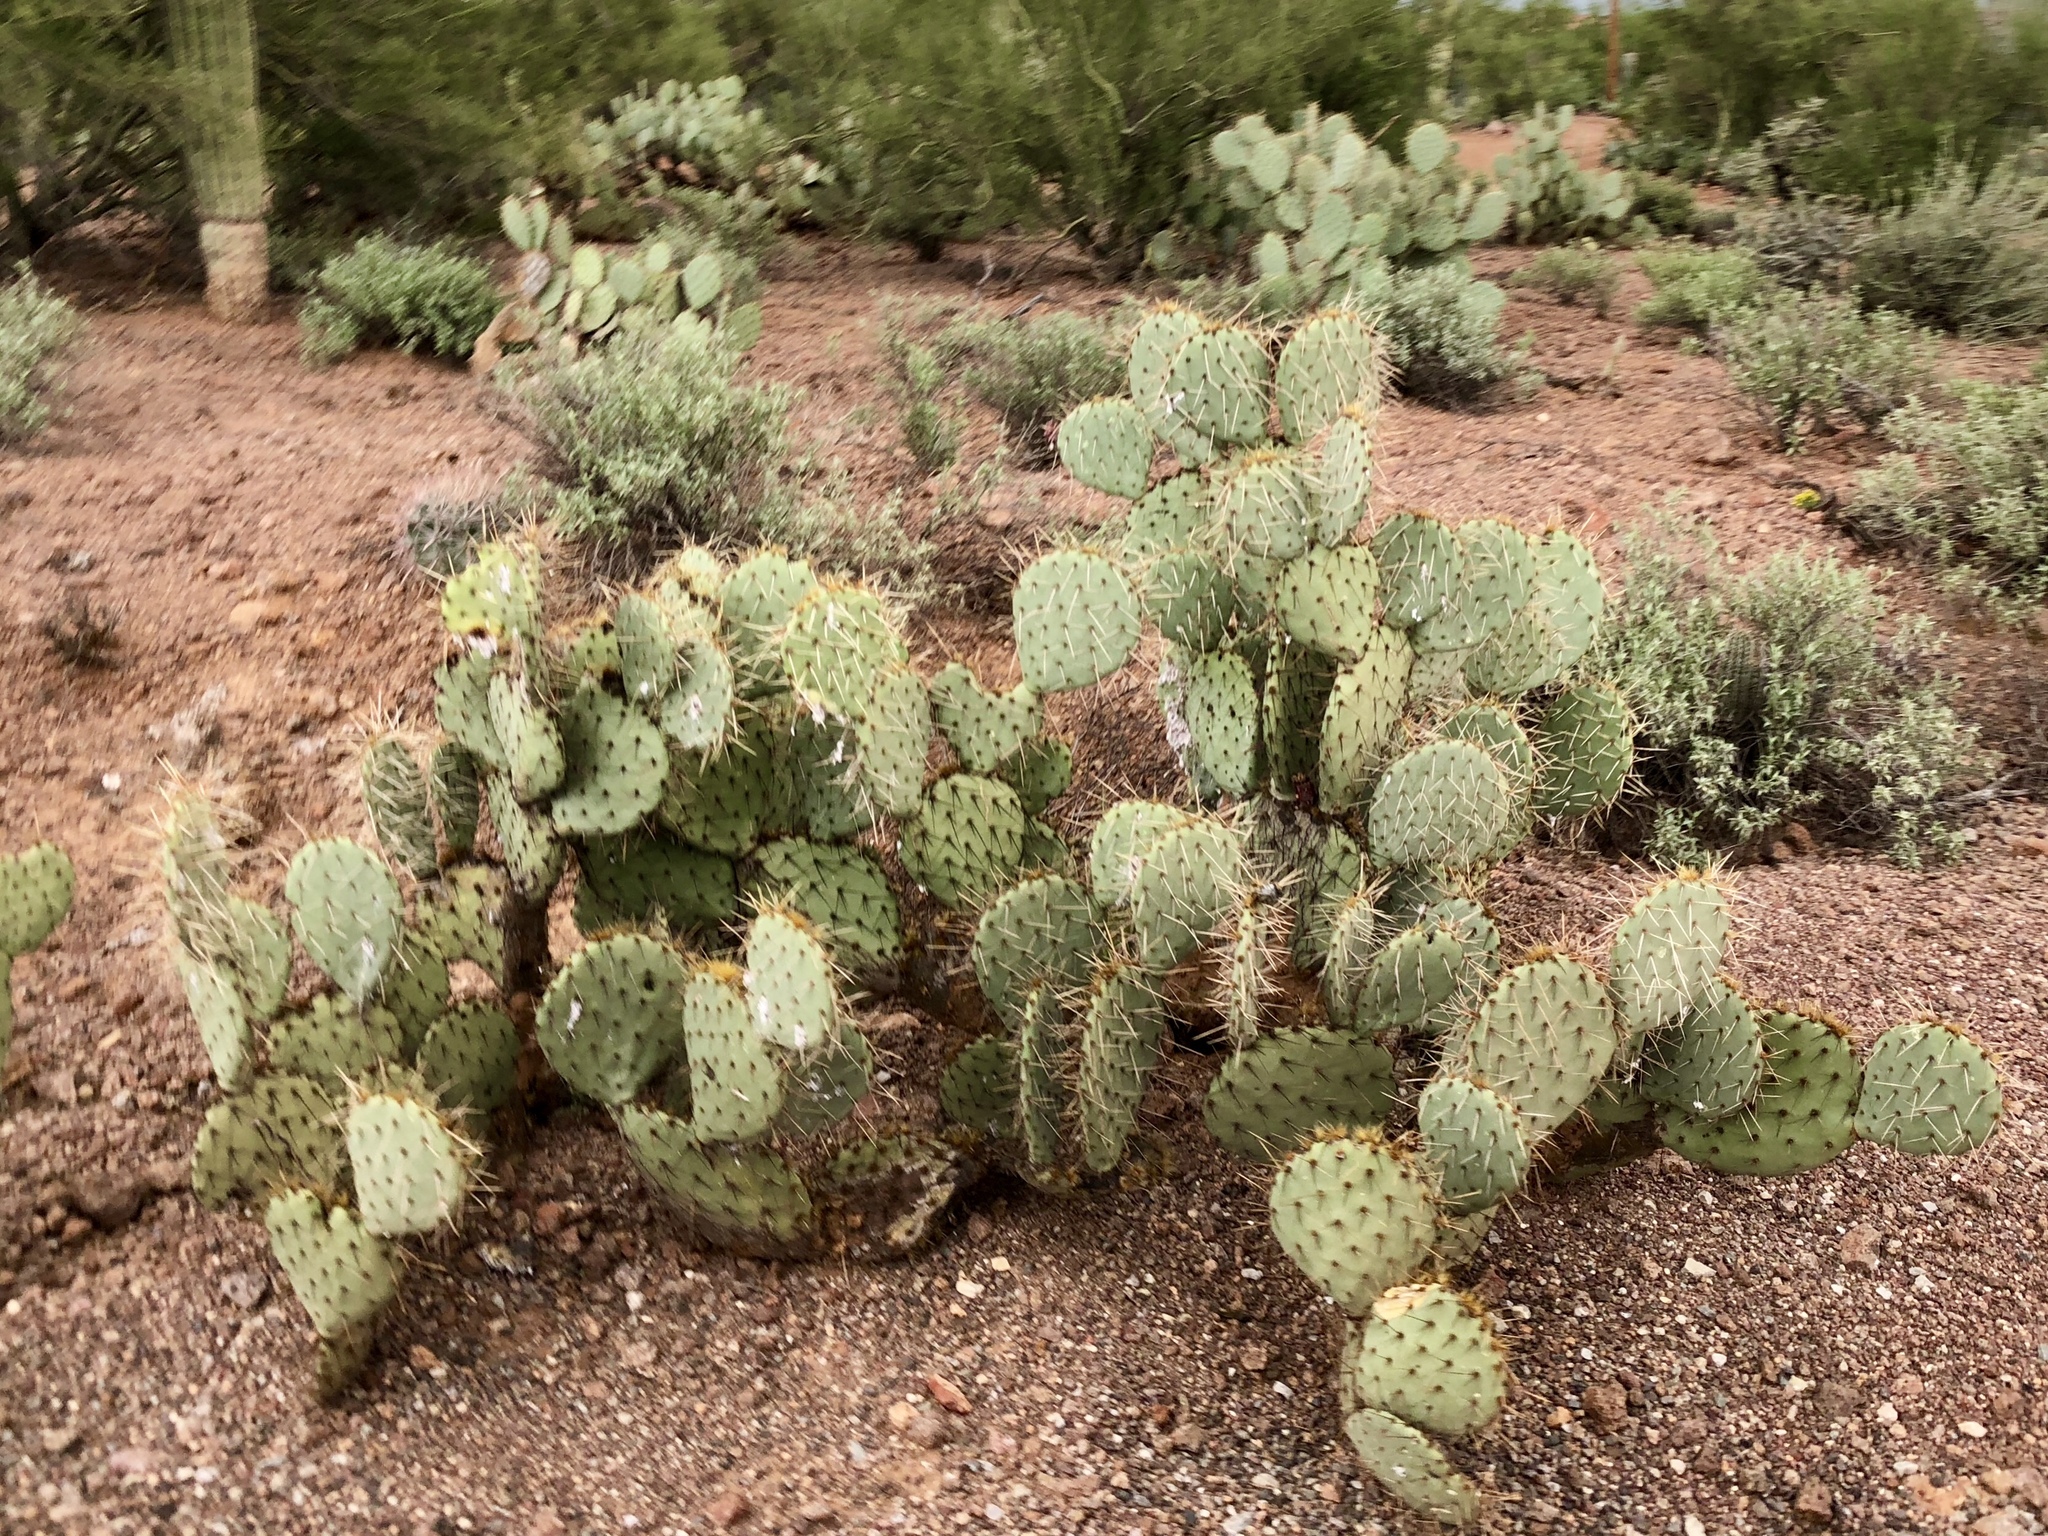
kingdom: Plantae
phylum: Tracheophyta
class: Magnoliopsida
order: Caryophyllales
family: Cactaceae
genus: Opuntia
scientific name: Opuntia engelmannii
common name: Cactus-apple
